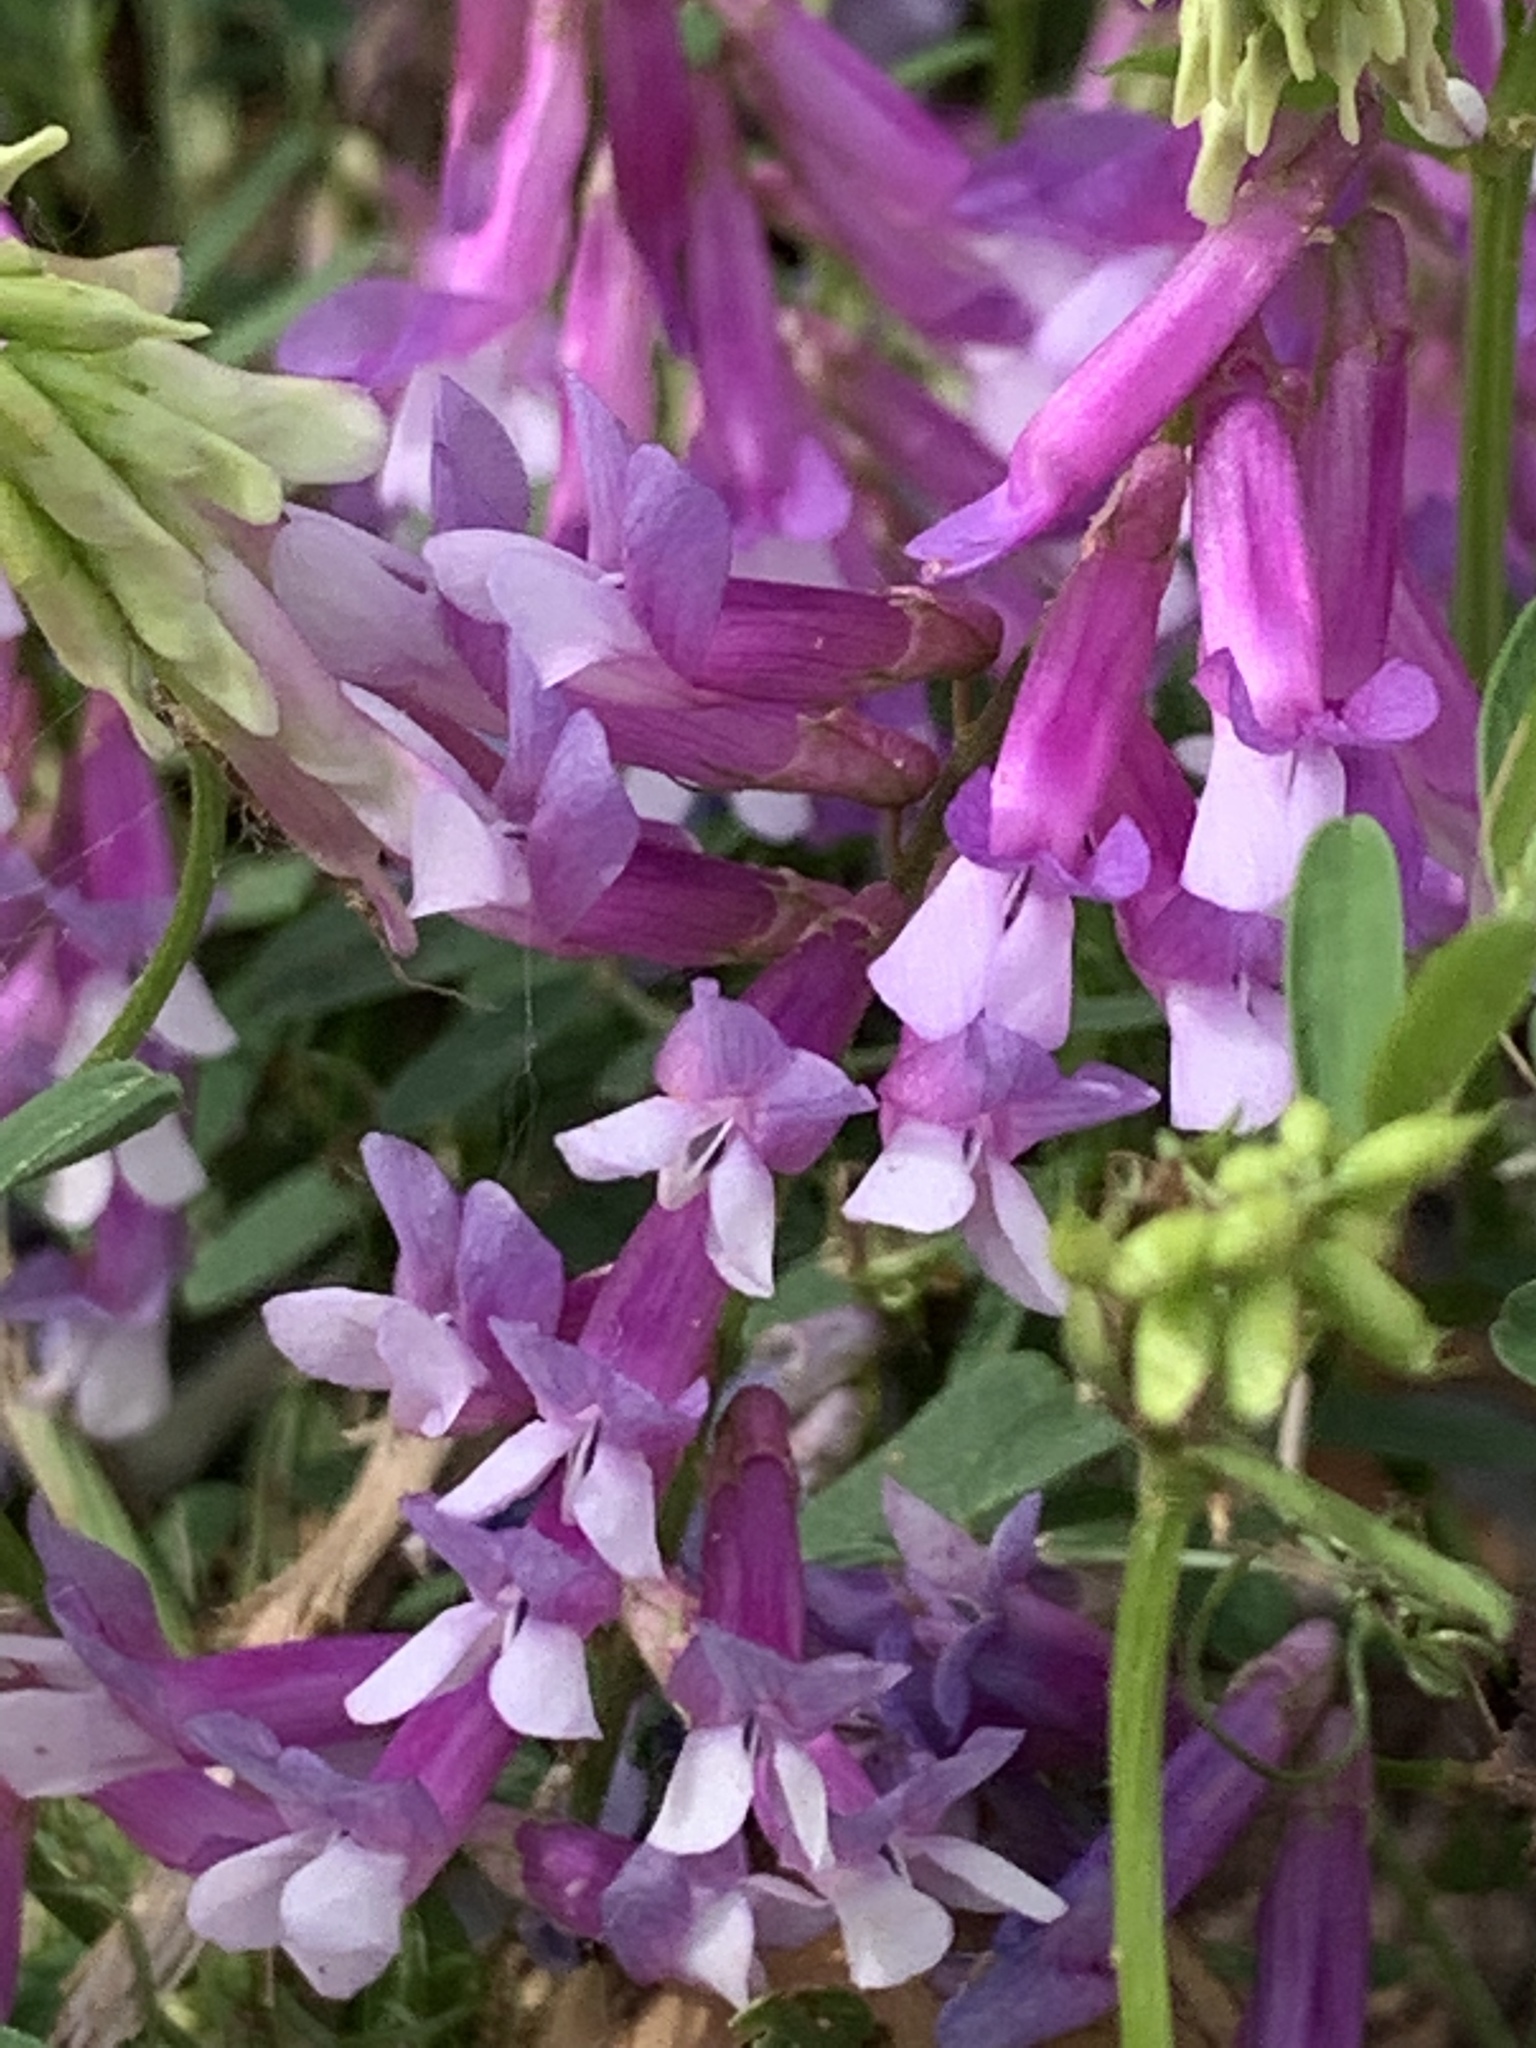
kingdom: Plantae
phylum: Tracheophyta
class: Magnoliopsida
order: Fabales
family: Fabaceae
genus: Vicia
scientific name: Vicia villosa
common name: Fodder vetch
